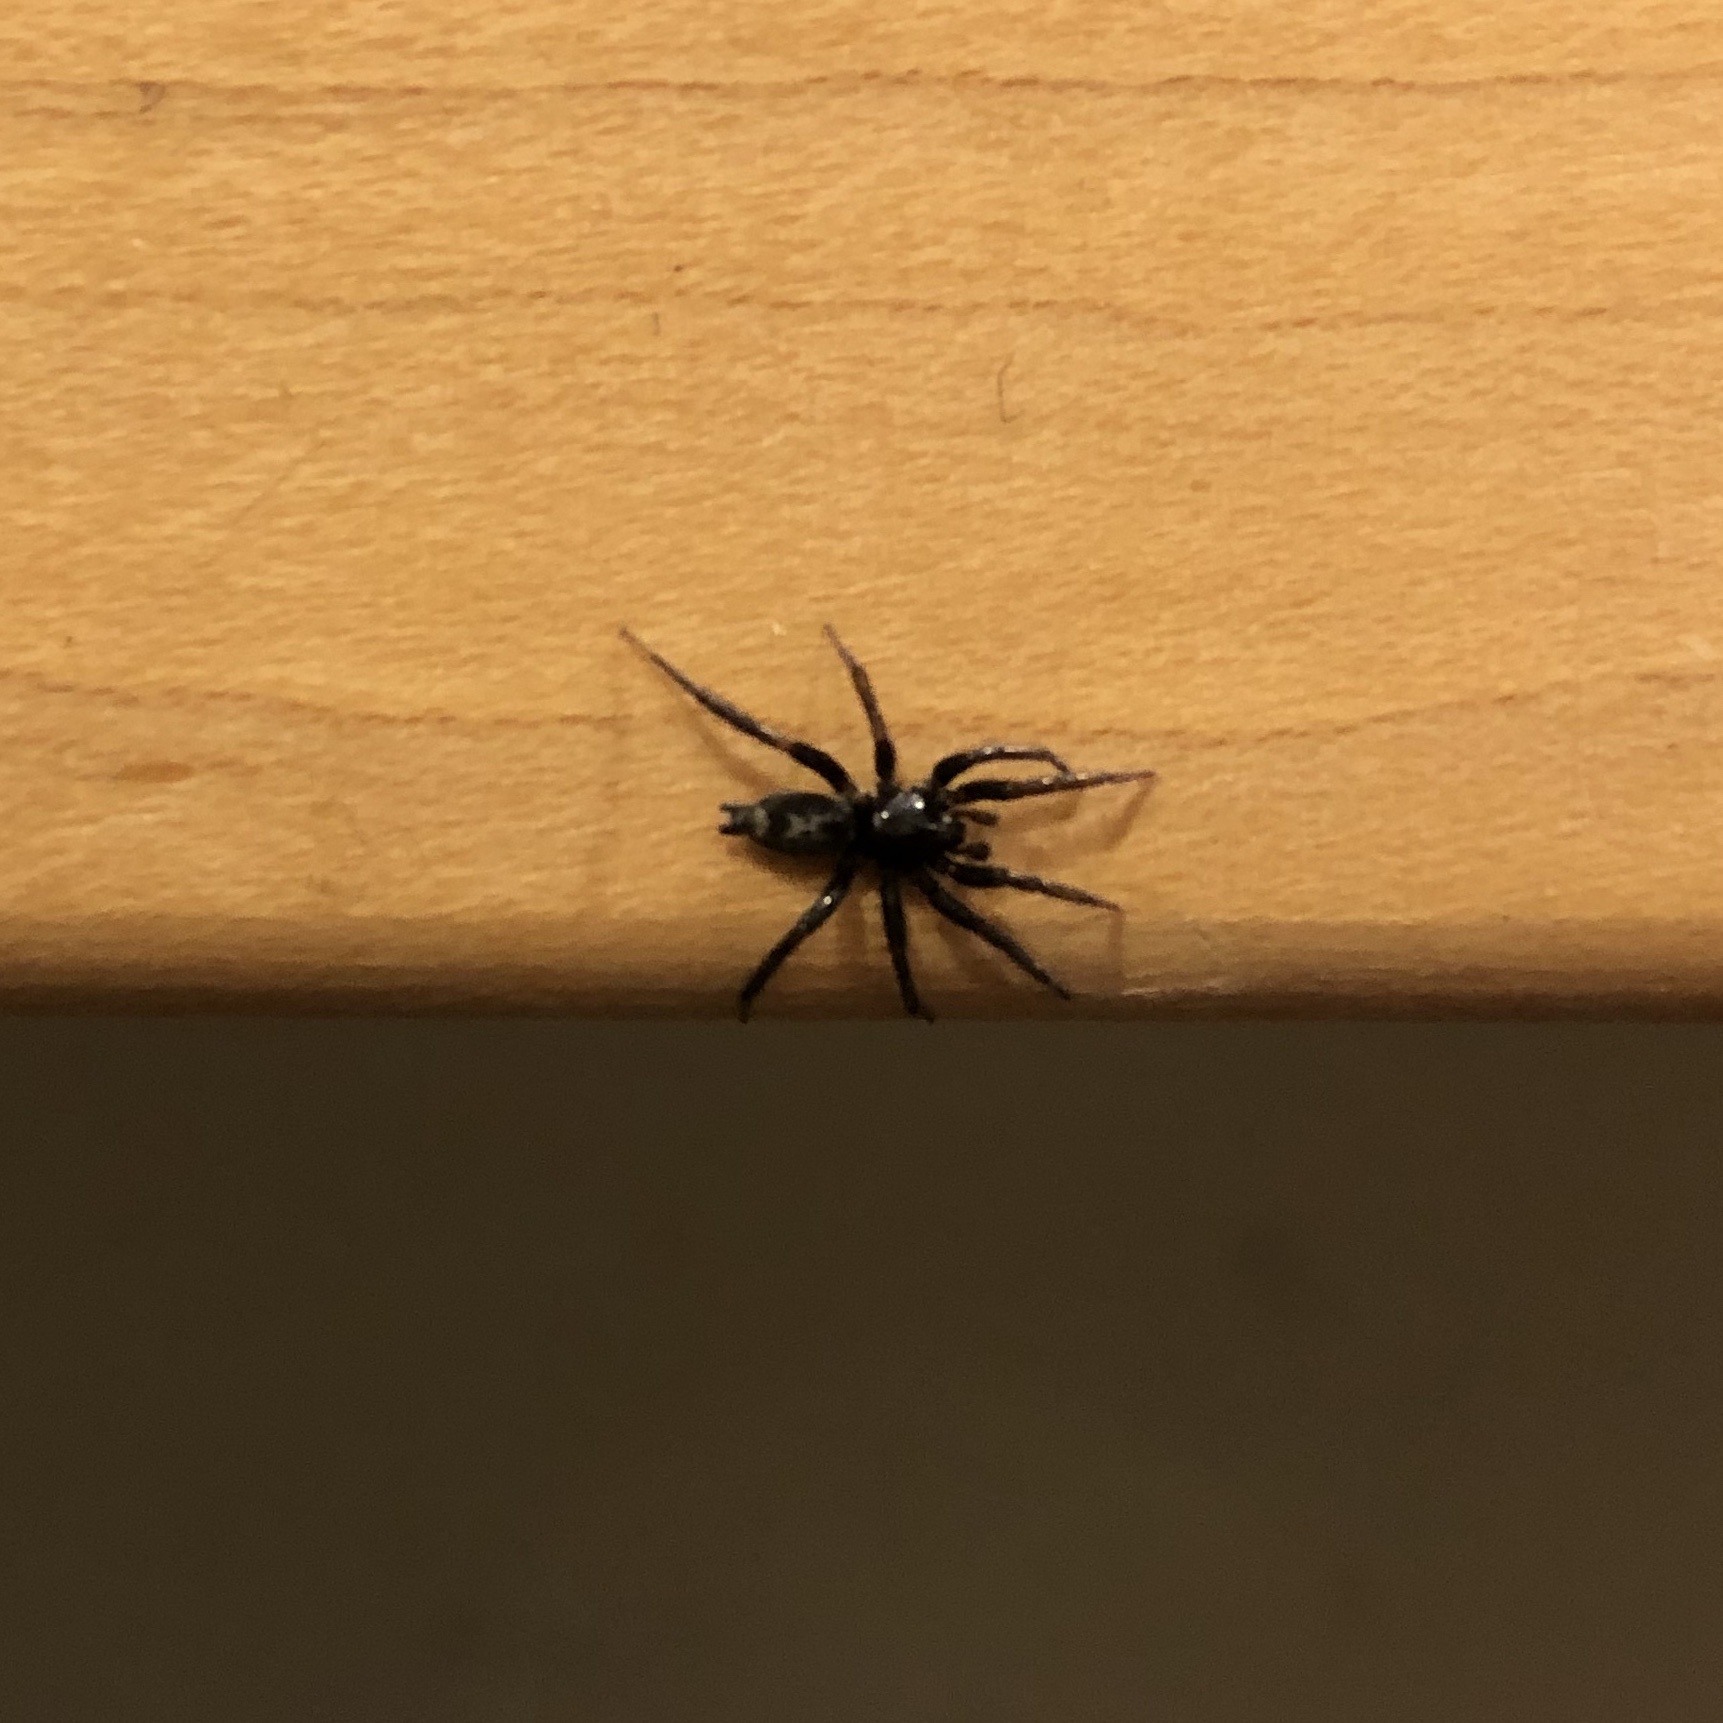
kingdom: Animalia
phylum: Arthropoda
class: Arachnida
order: Araneae
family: Gnaphosidae
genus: Herpyllus
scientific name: Herpyllus ecclesiasticus
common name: Eastern parson spider
